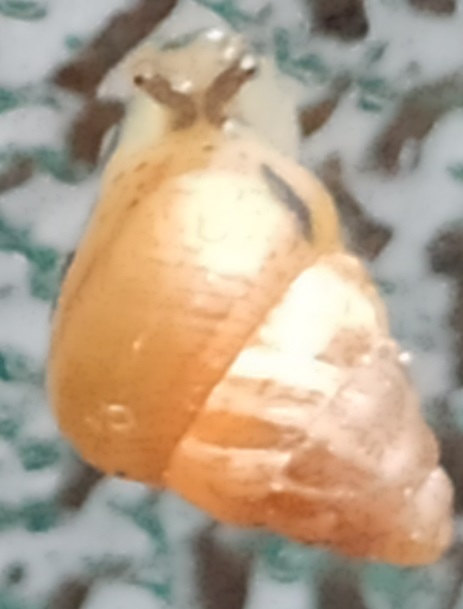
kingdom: Animalia
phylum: Mollusca
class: Gastropoda
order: Stylommatophora
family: Geomitridae
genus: Cochlicella
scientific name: Cochlicella barbara
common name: Potbellied helicellid
